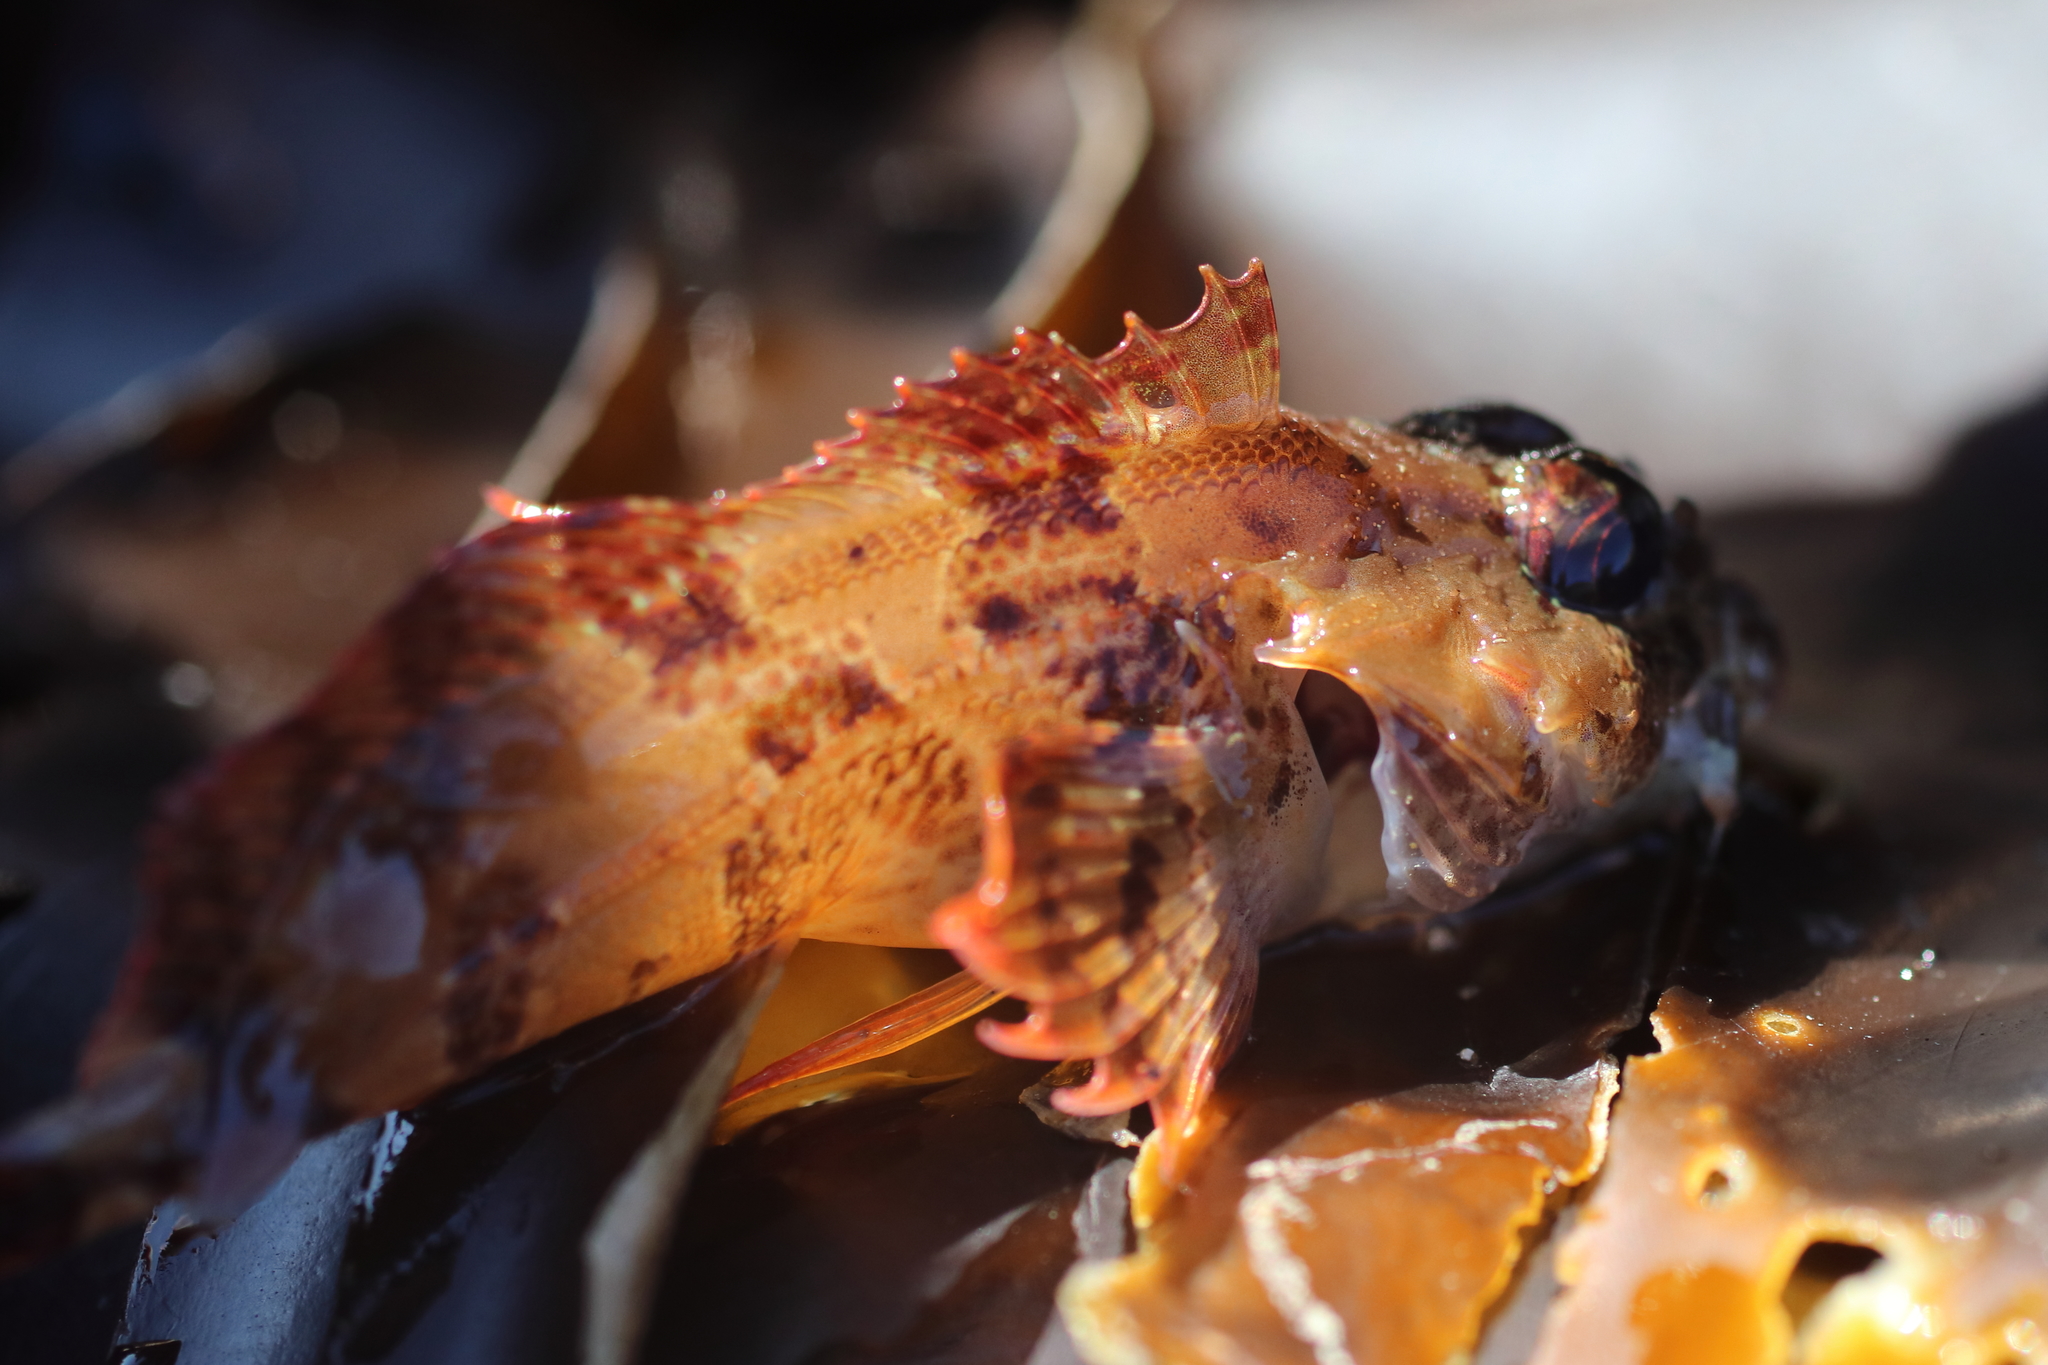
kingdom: Animalia
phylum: Chordata
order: Scorpaeniformes
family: Cottidae
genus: Hemilepidotus
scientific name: Hemilepidotus hemilepidotus
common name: Red irish lord
